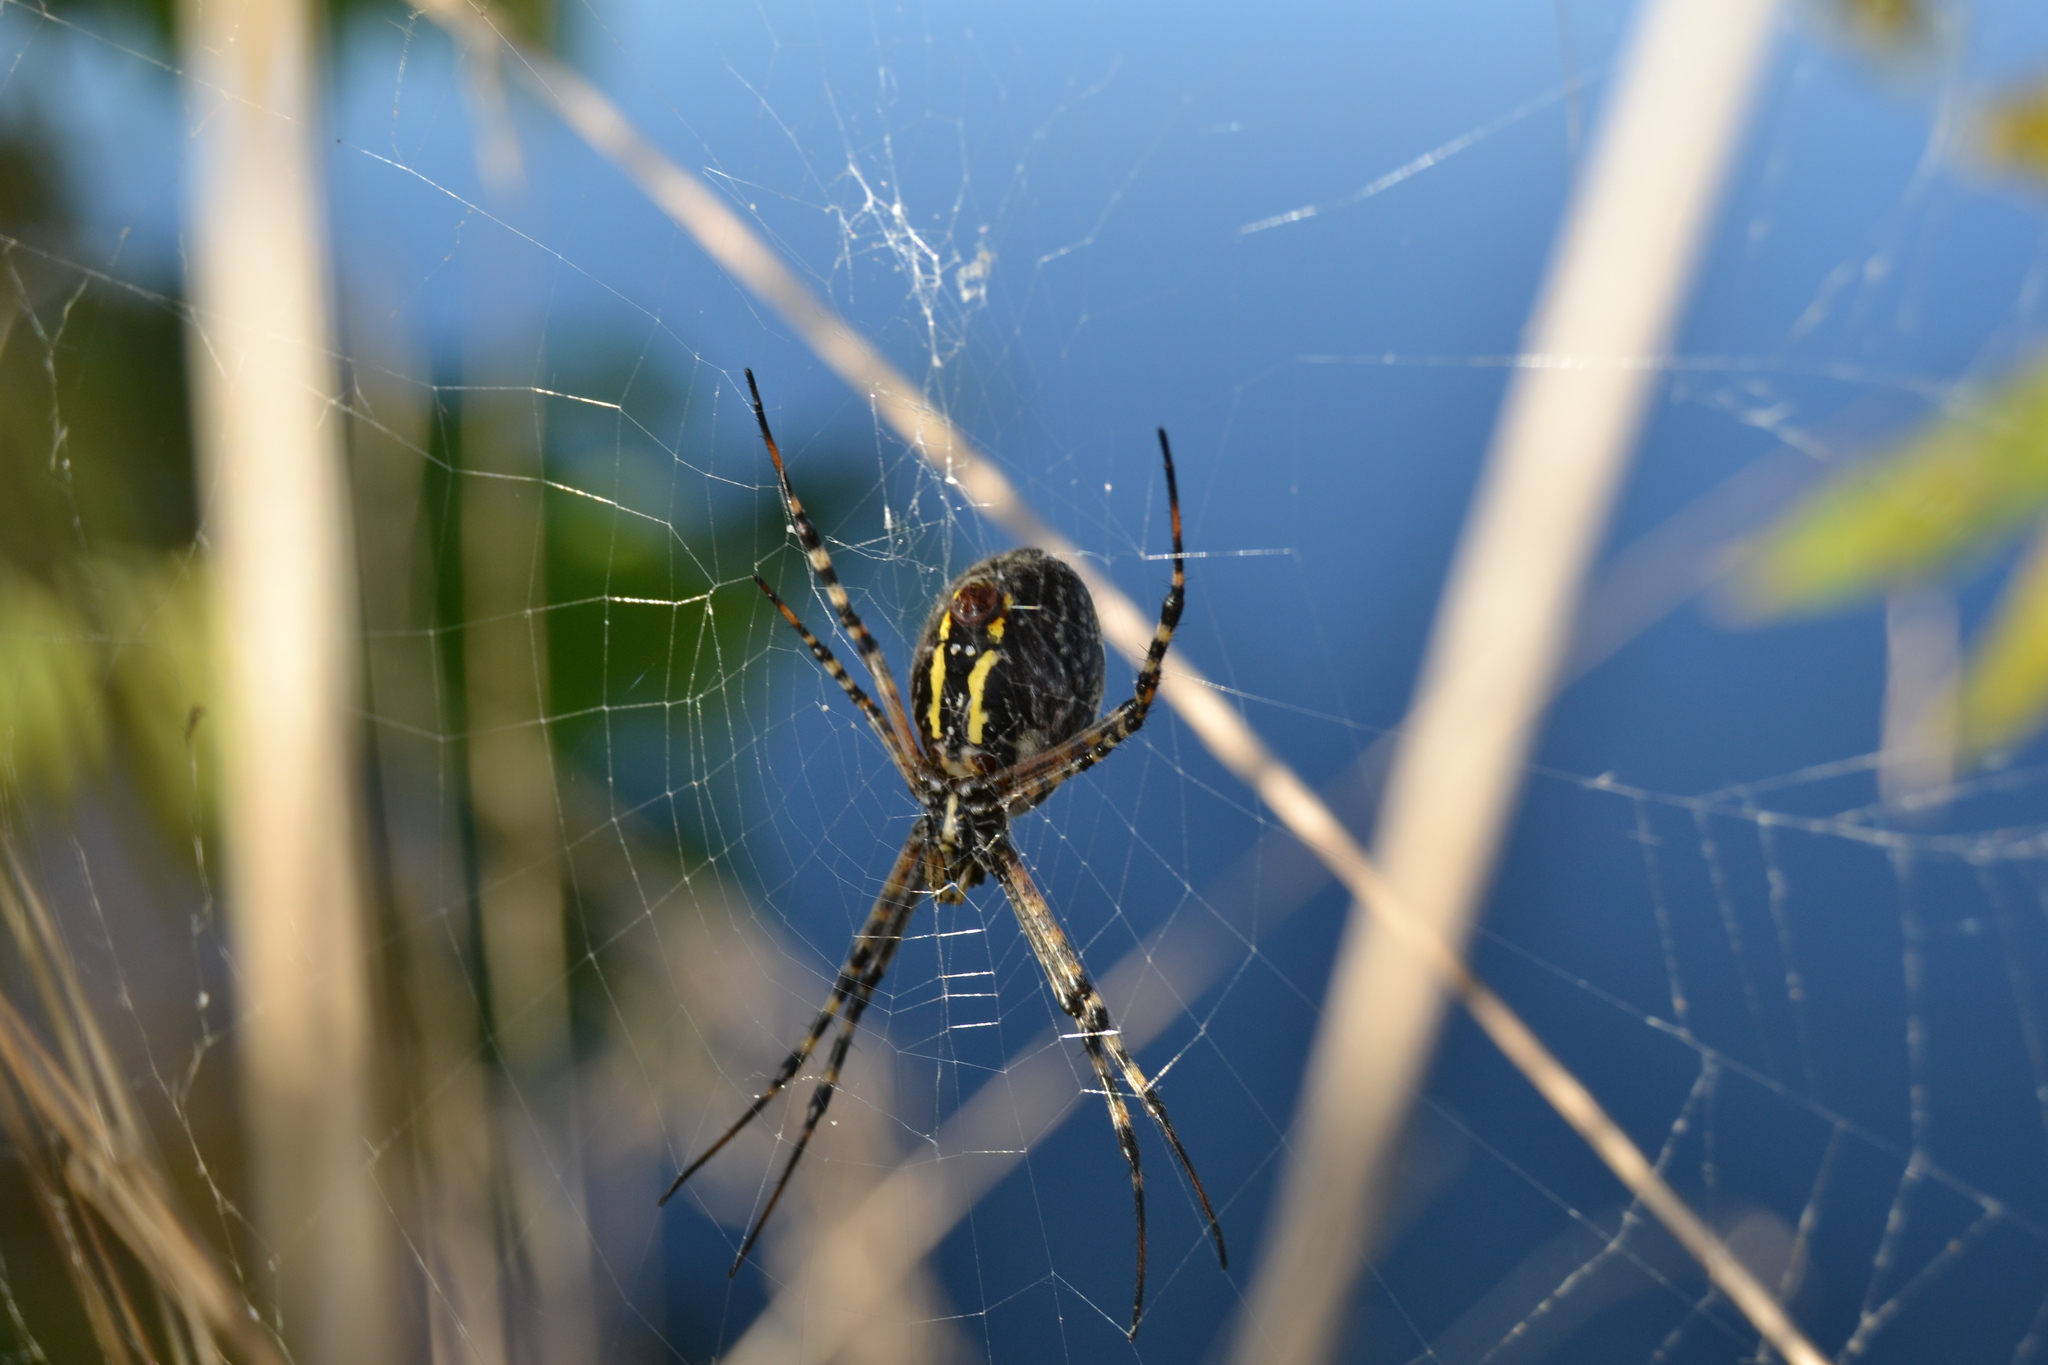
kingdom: Animalia
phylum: Arthropoda
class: Arachnida
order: Araneae
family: Araneidae
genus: Argiope
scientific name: Argiope aurantia
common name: Orb weavers
